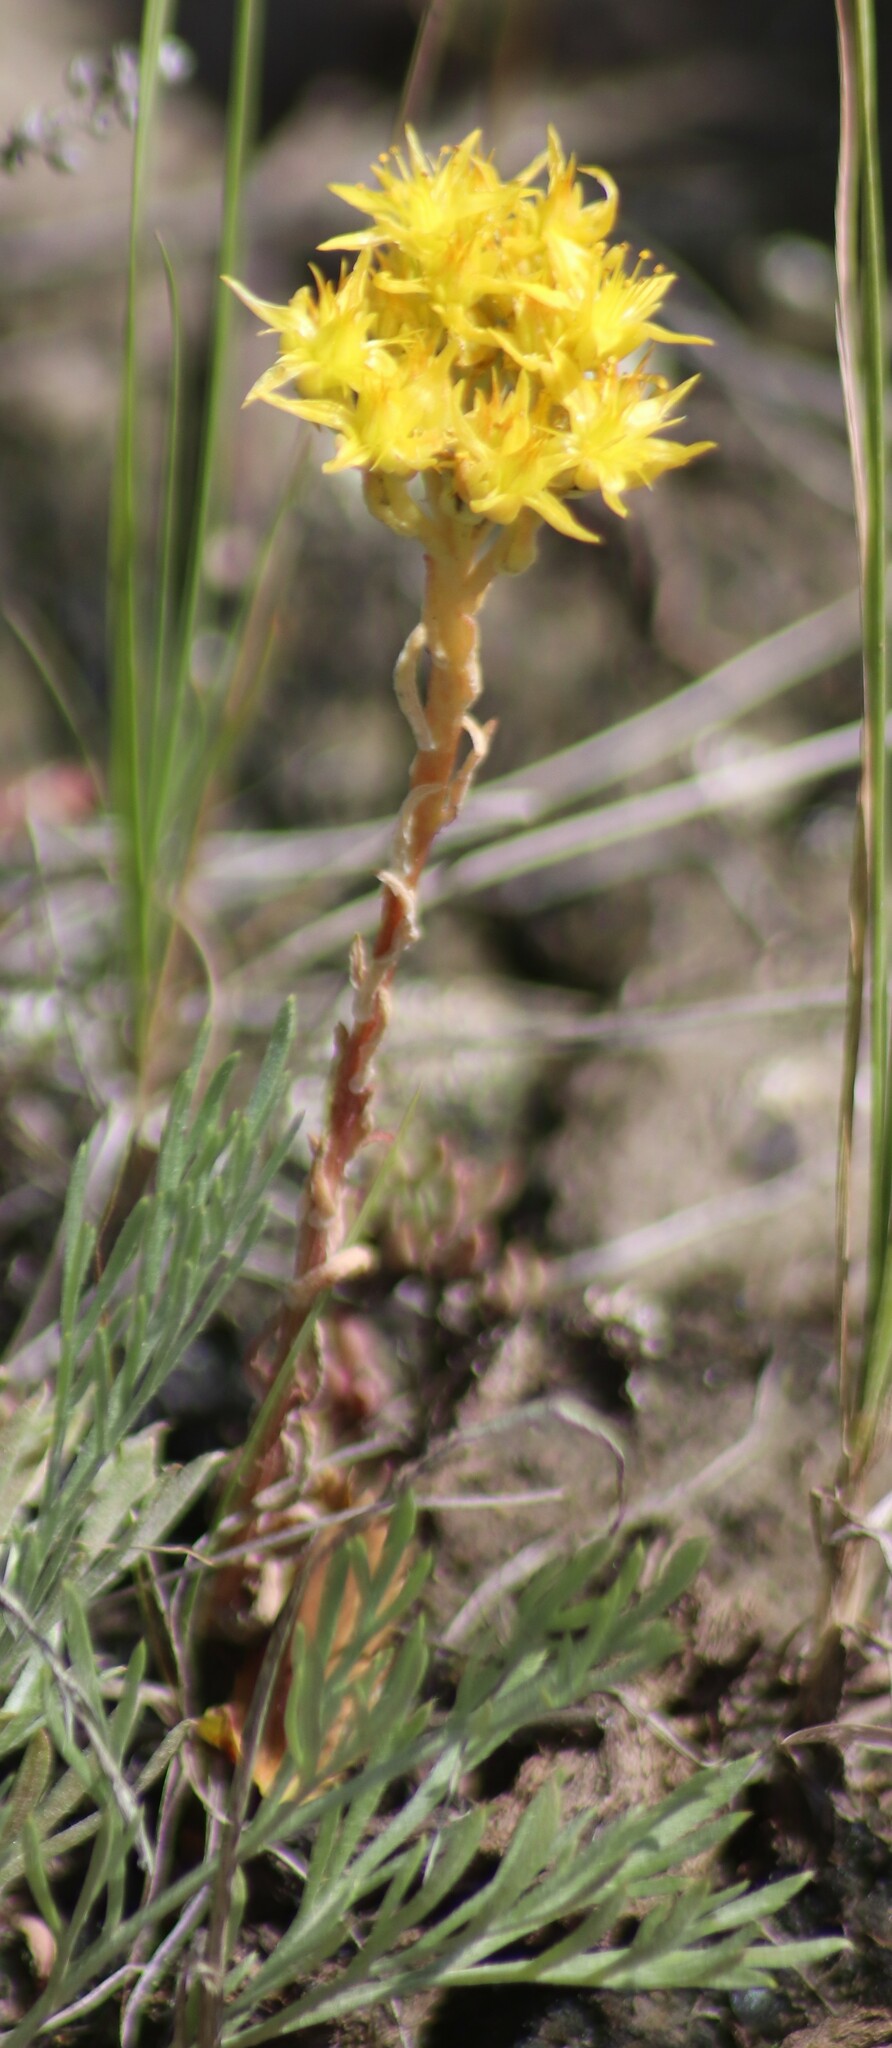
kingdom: Plantae
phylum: Tracheophyta
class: Magnoliopsida
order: Saxifragales
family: Crassulaceae
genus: Sedum
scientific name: Sedum lanceolatum
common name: Common stonecrop
